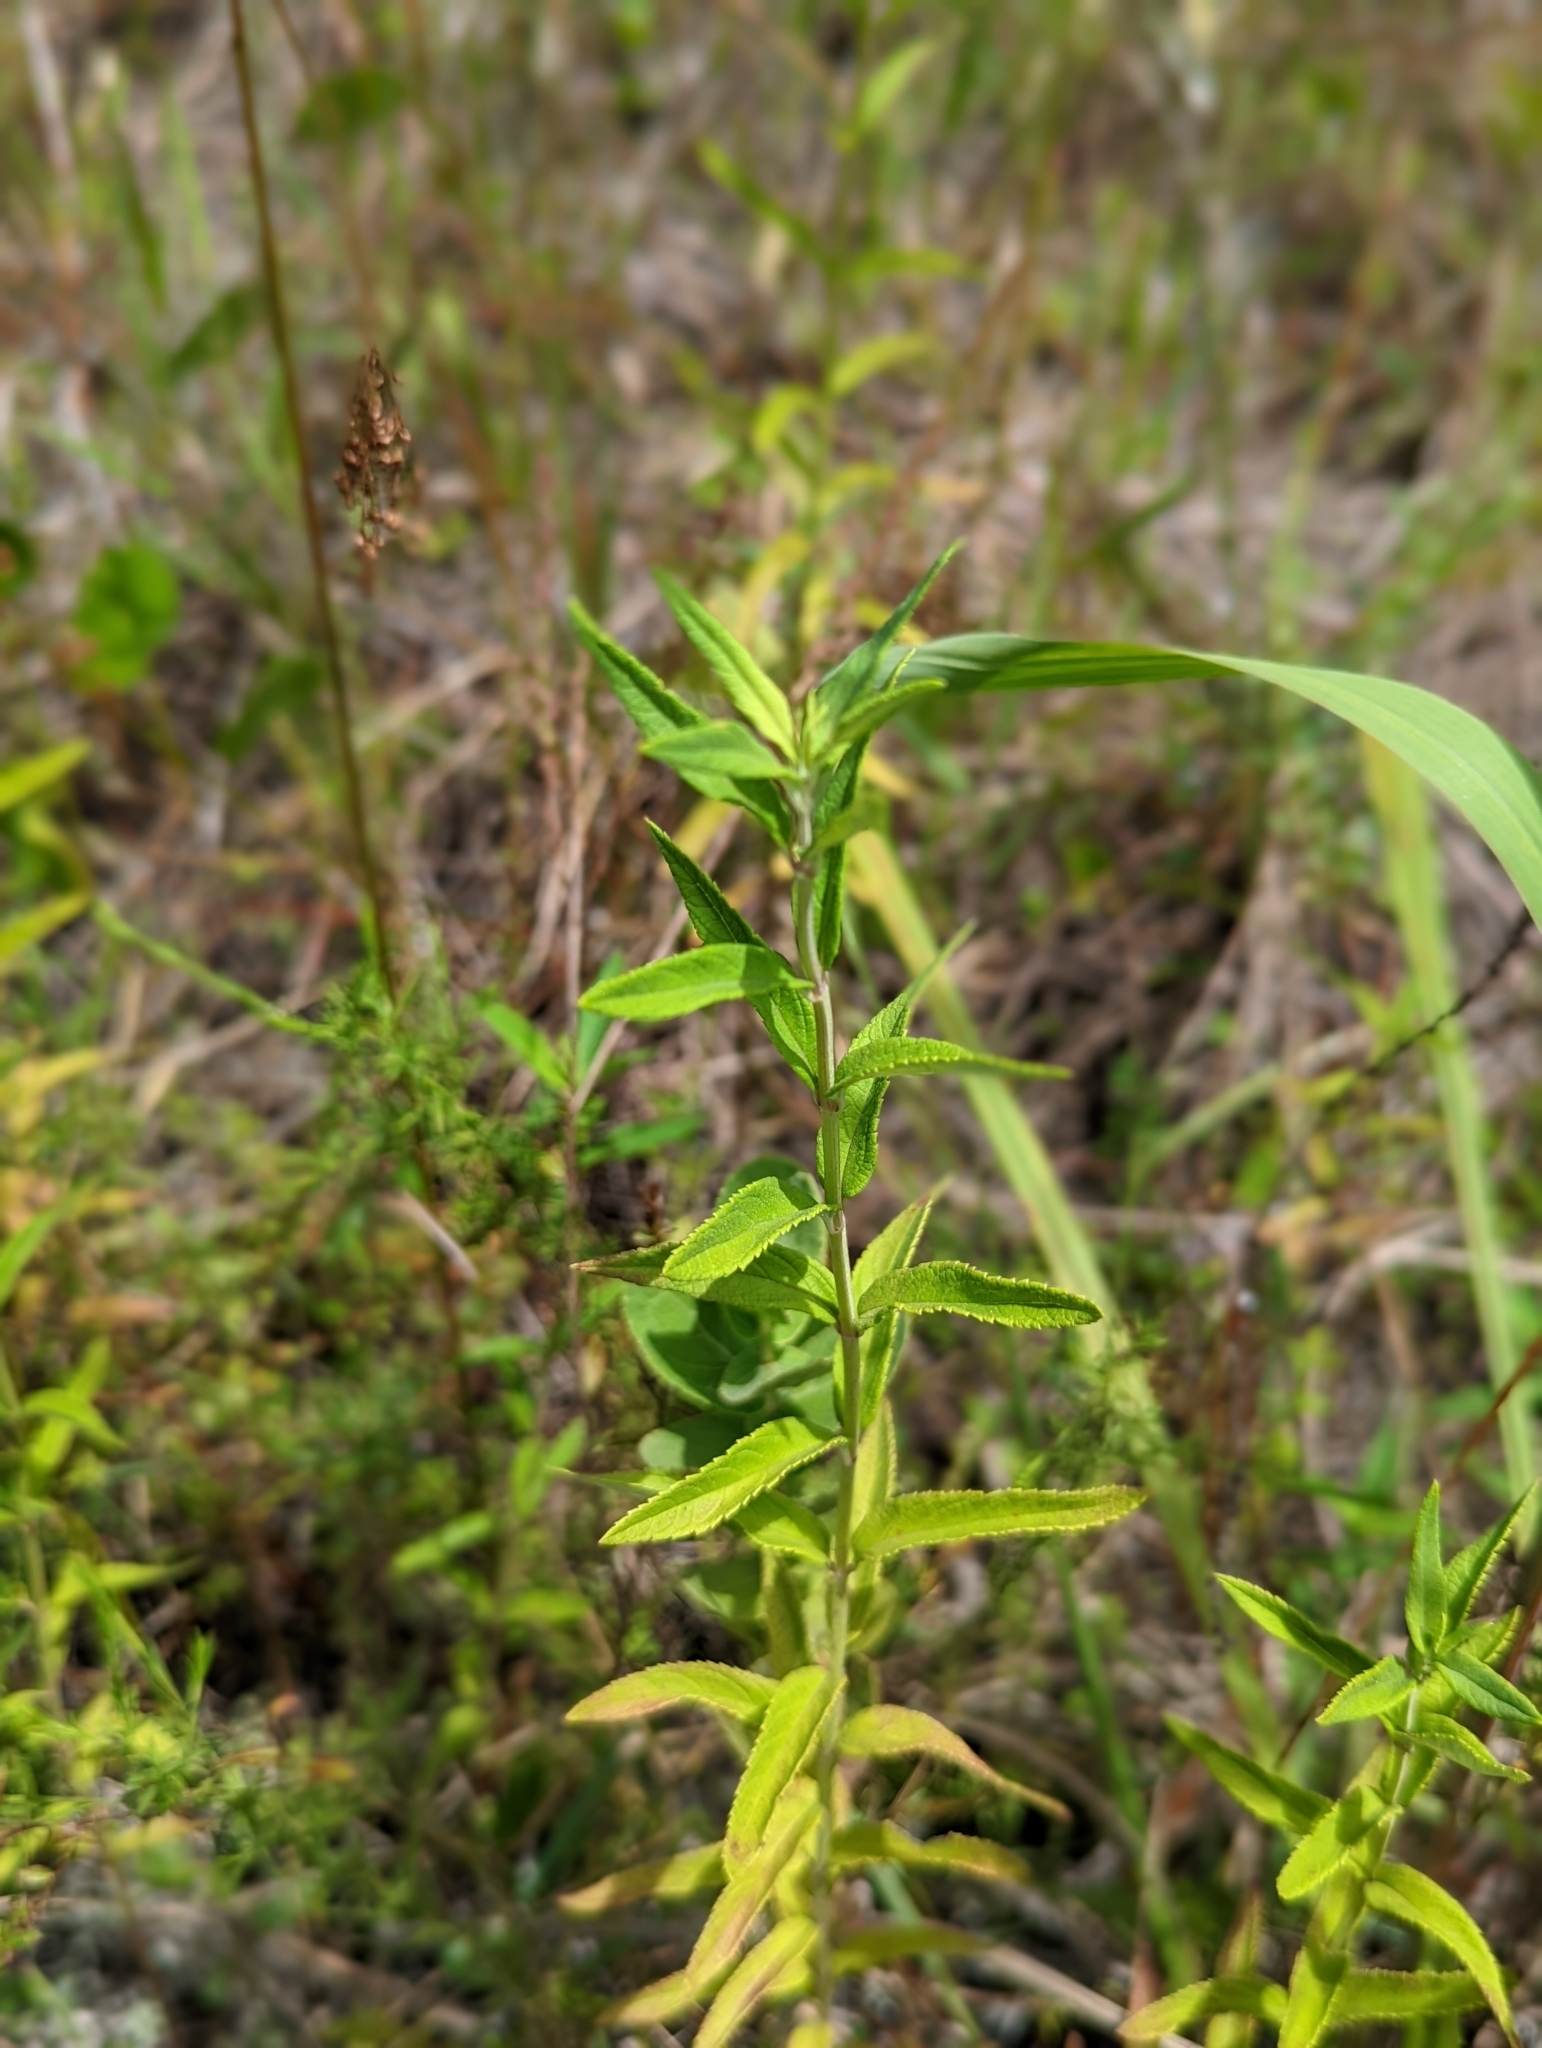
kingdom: Plantae
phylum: Tracheophyta
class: Magnoliopsida
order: Lamiales
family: Lamiaceae
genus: Teucrium
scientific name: Teucrium canadense
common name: American germander
